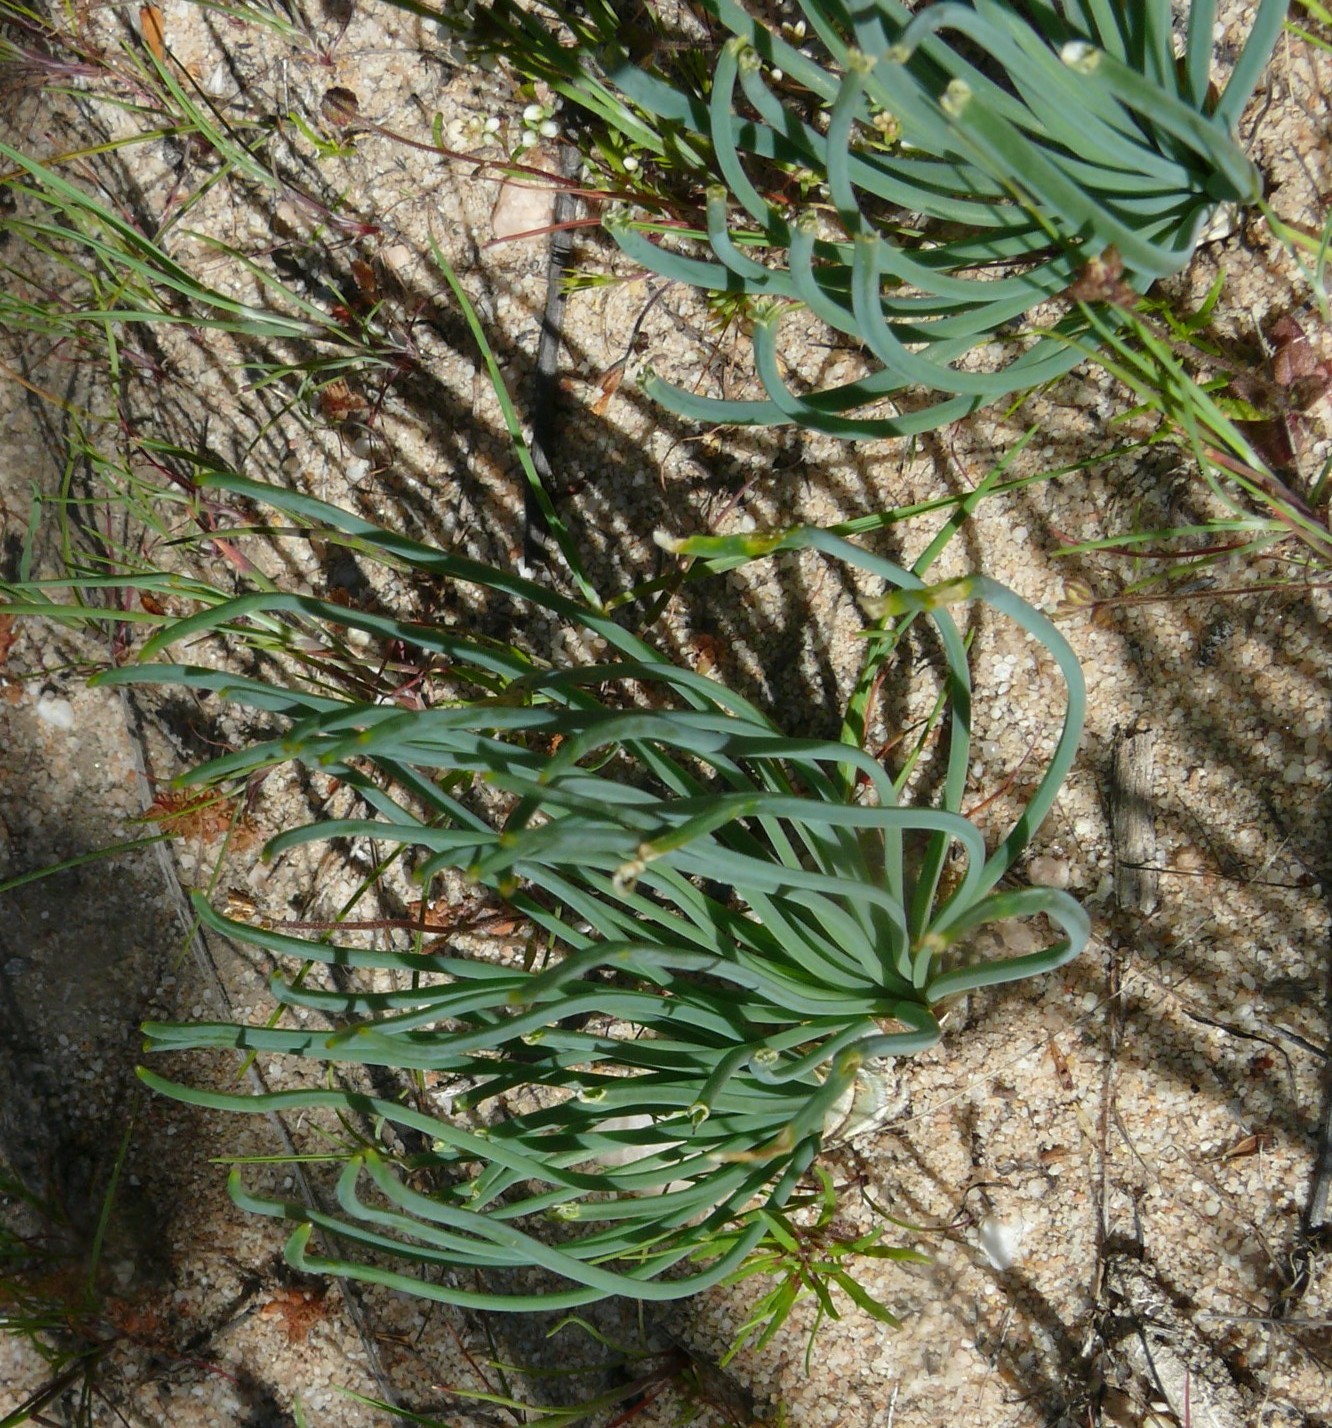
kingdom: Plantae
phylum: Tracheophyta
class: Liliopsida
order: Asparagales
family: Asparagaceae
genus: Drimia
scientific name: Drimia exuviata
